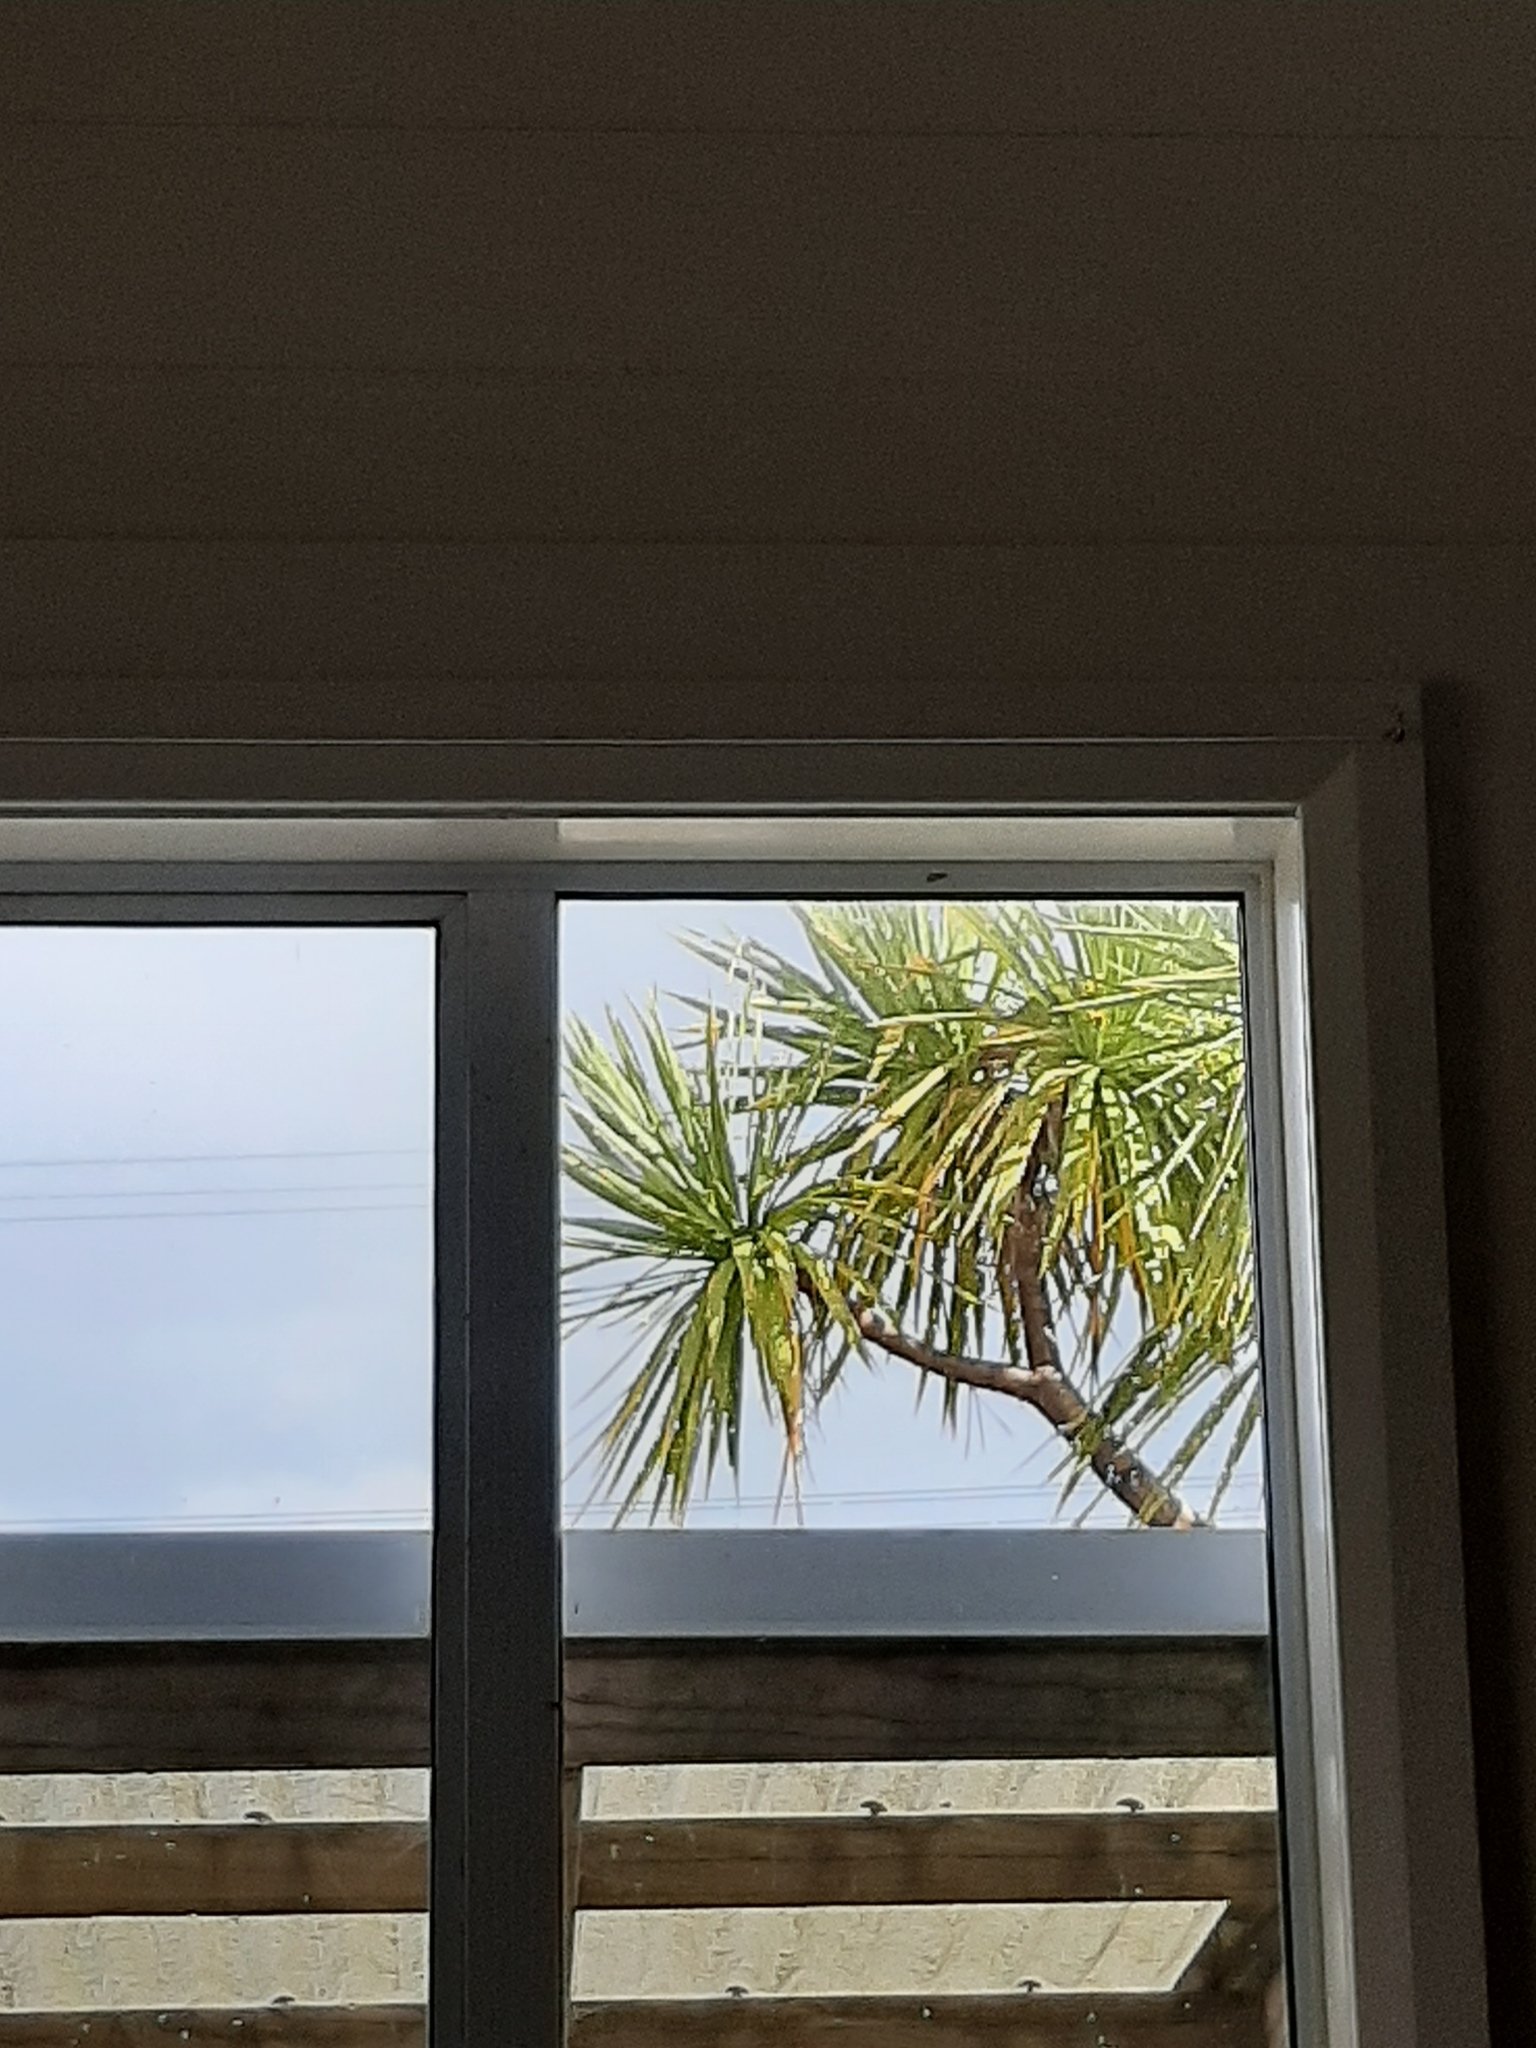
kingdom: Plantae
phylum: Tracheophyta
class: Liliopsida
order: Asparagales
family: Asparagaceae
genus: Cordyline
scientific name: Cordyline australis
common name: Cabbage-palm
